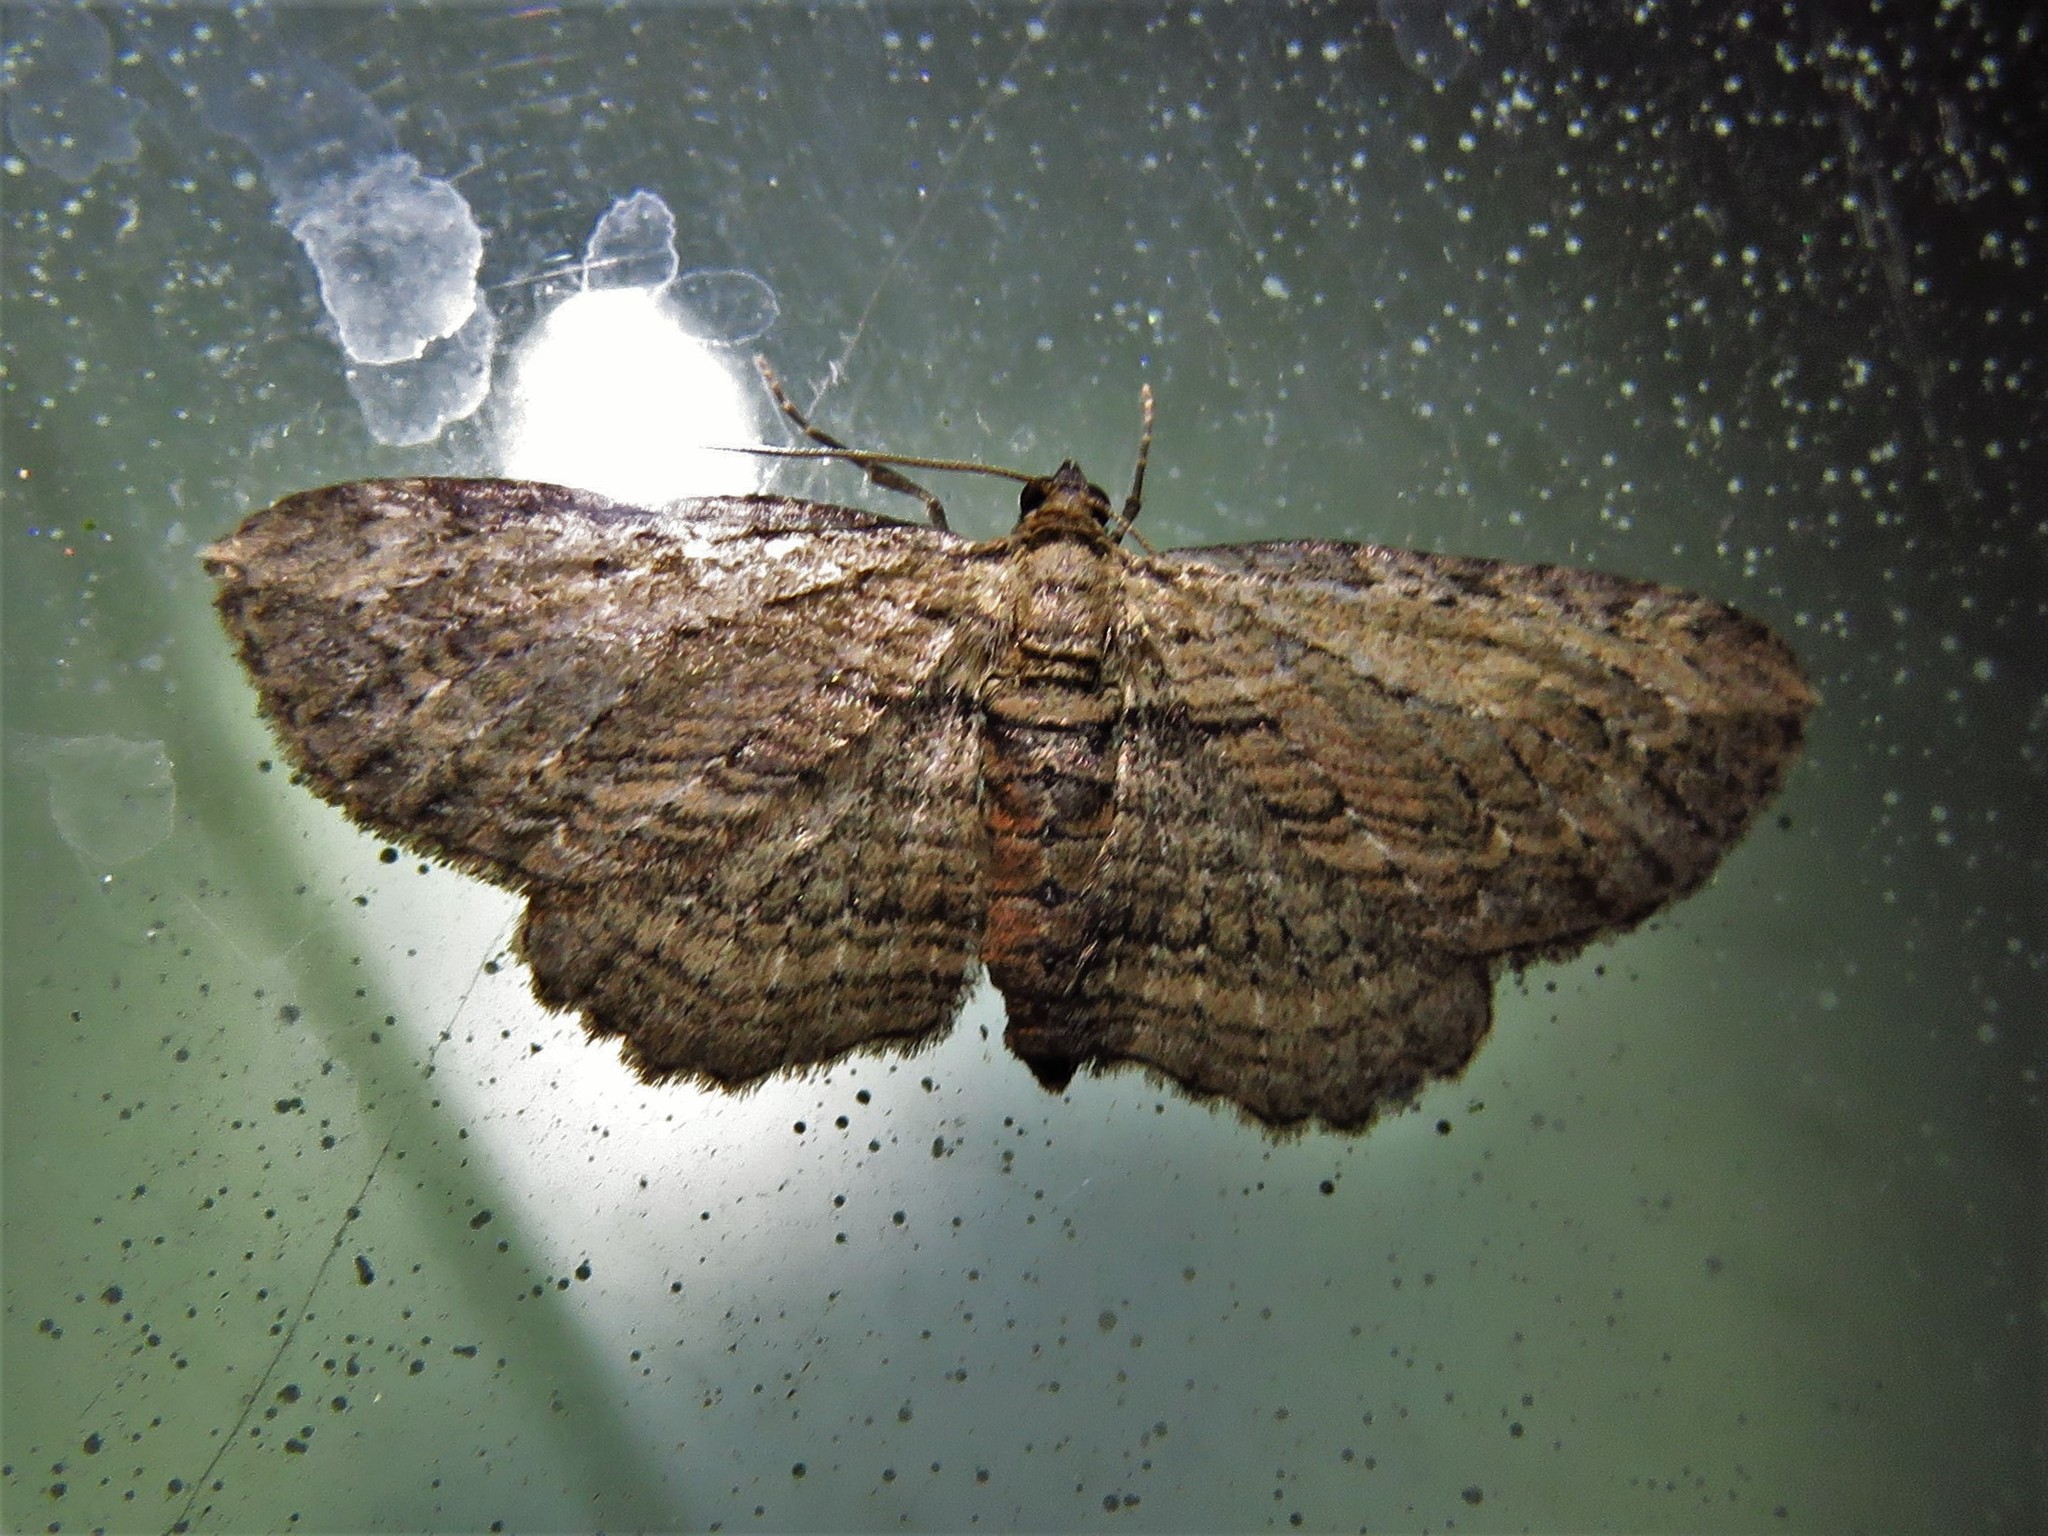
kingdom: Animalia
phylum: Arthropoda
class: Insecta
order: Lepidoptera
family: Geometridae
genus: Horisme
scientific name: Horisme intestinata
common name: Brown bark carpet
